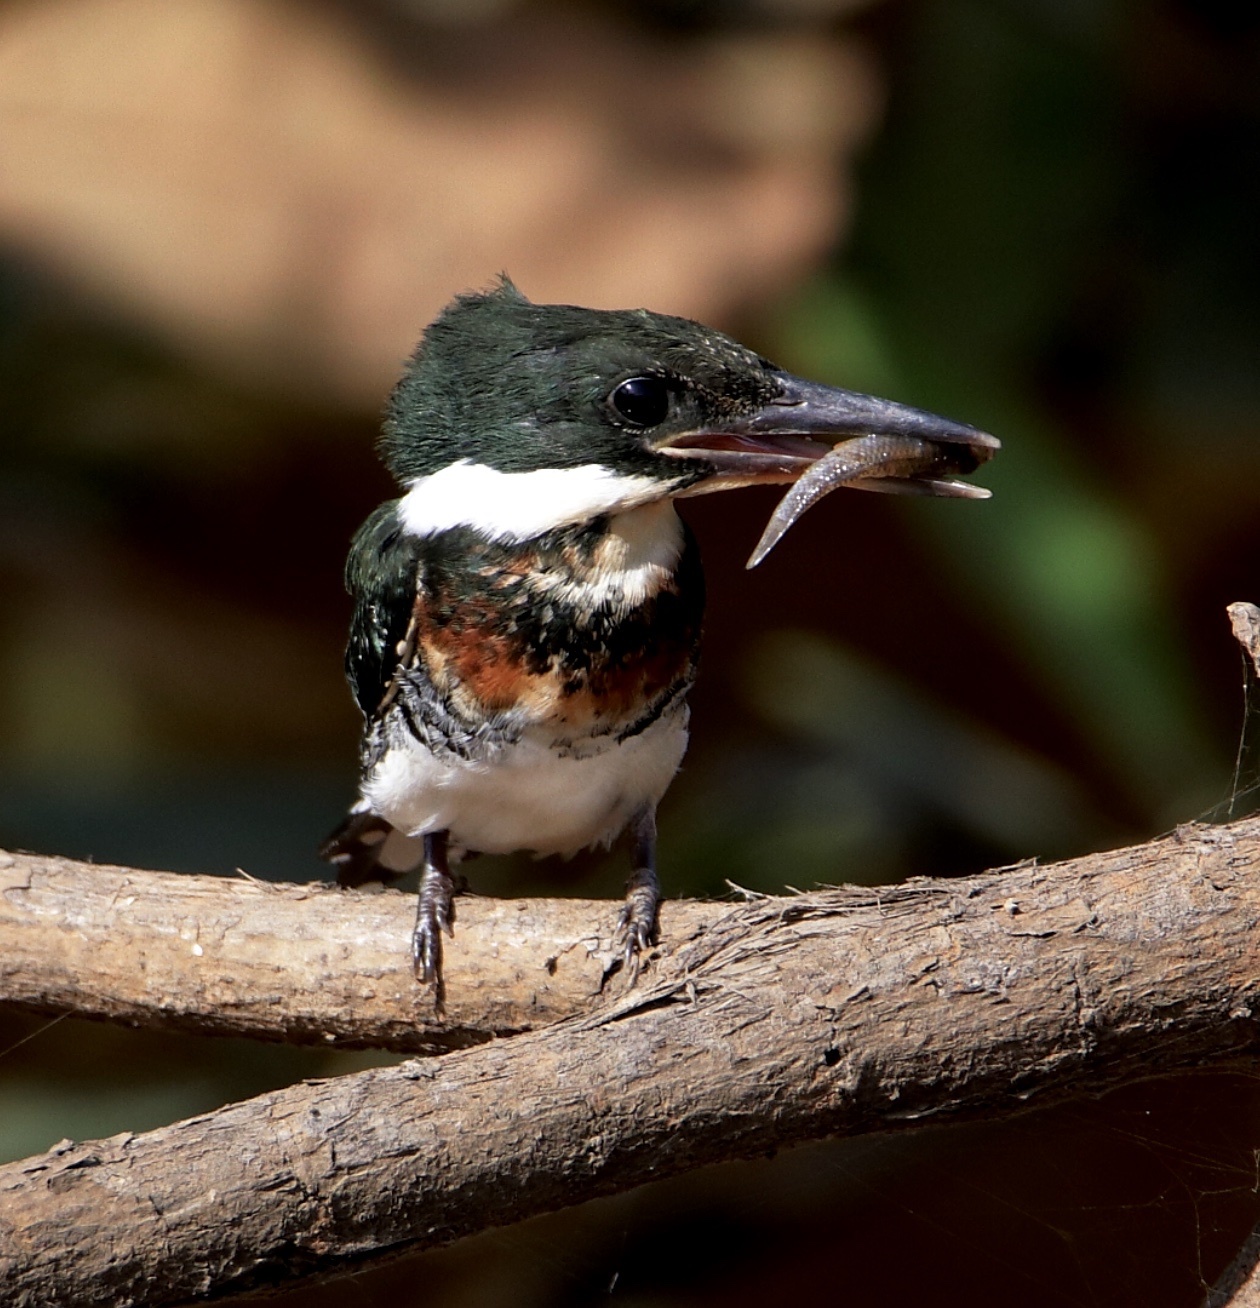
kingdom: Animalia
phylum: Chordata
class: Aves
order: Coraciiformes
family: Alcedinidae
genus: Chloroceryle
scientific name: Chloroceryle americana
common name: Green kingfisher
